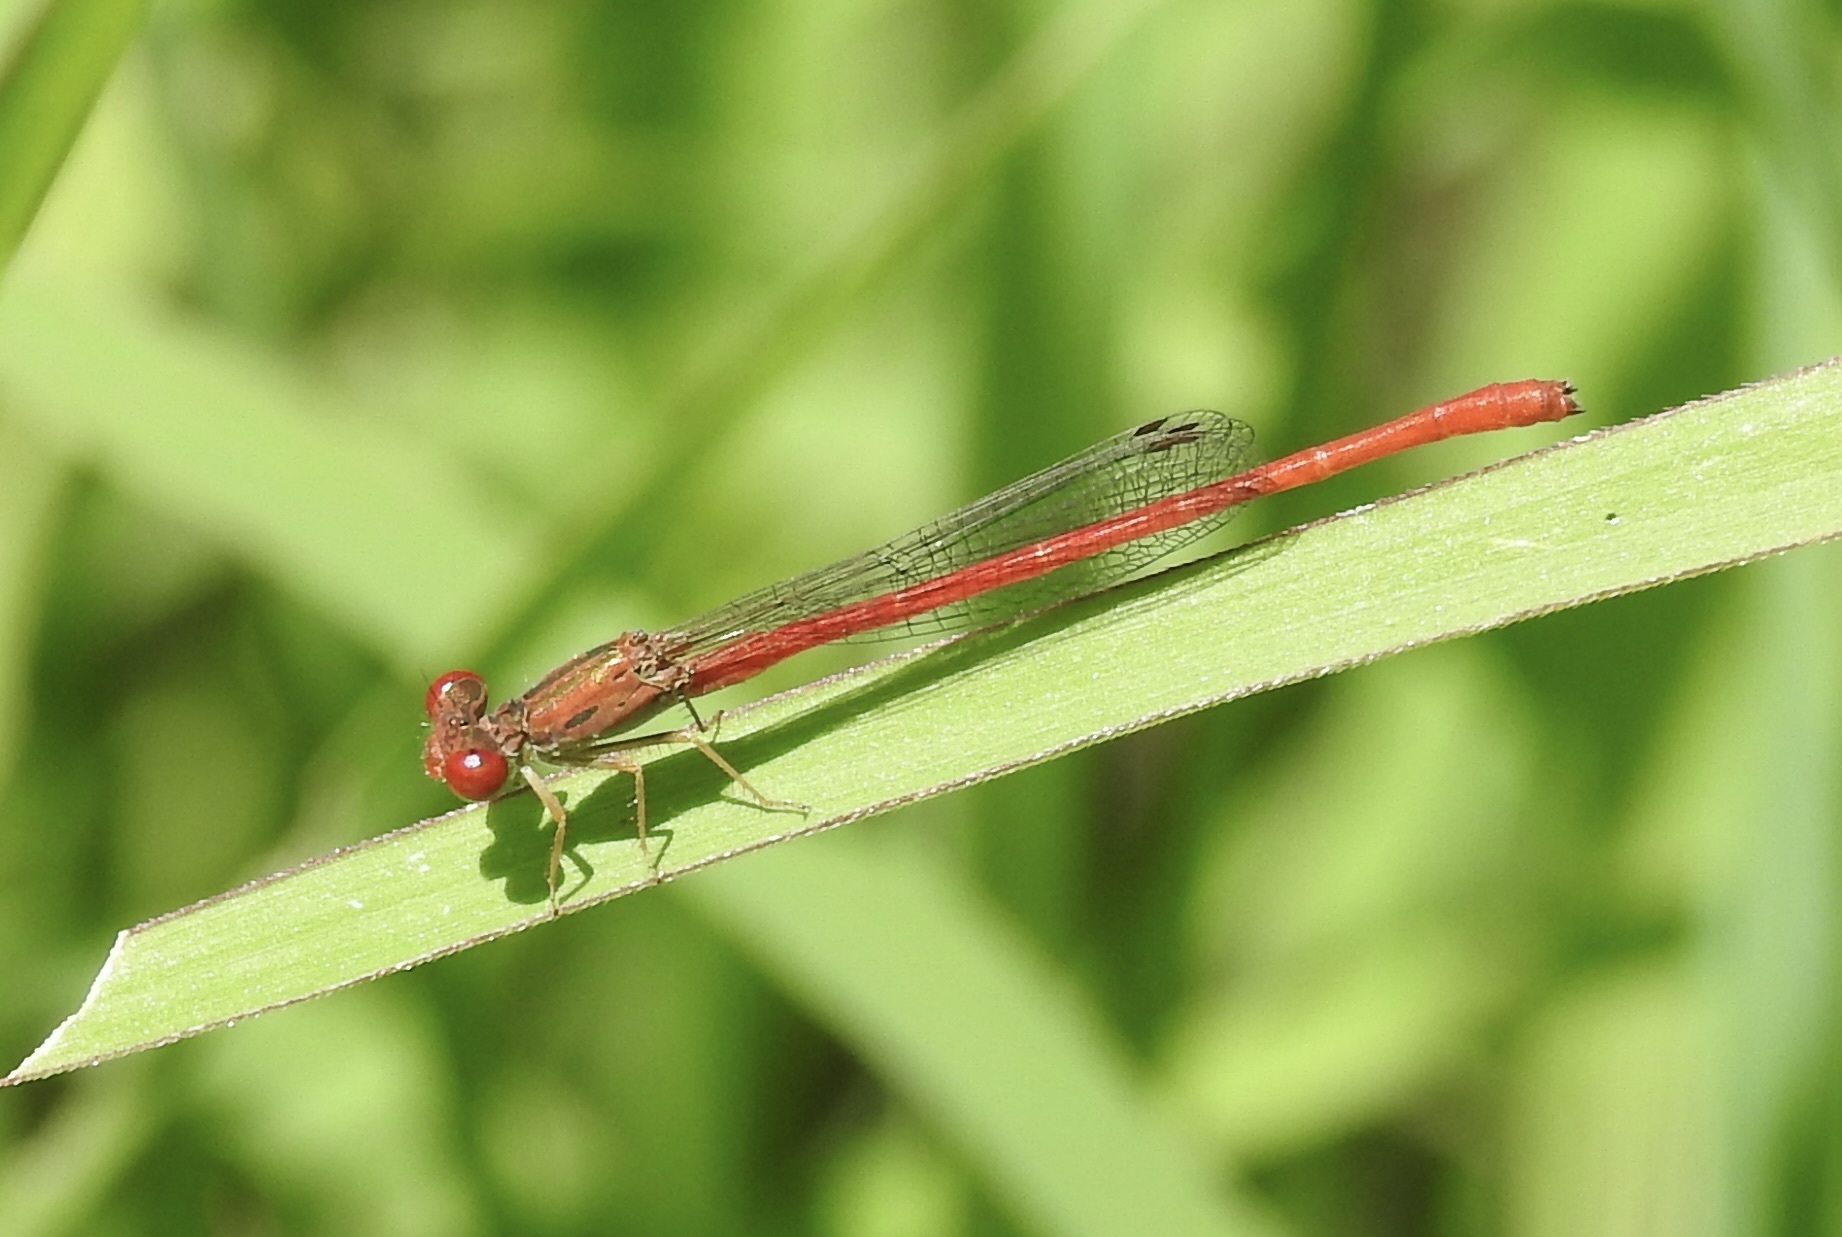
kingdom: Animalia
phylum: Arthropoda
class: Insecta
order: Odonata
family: Coenagrionidae
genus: Telebasis
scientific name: Telebasis salva
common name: Desert firetail
